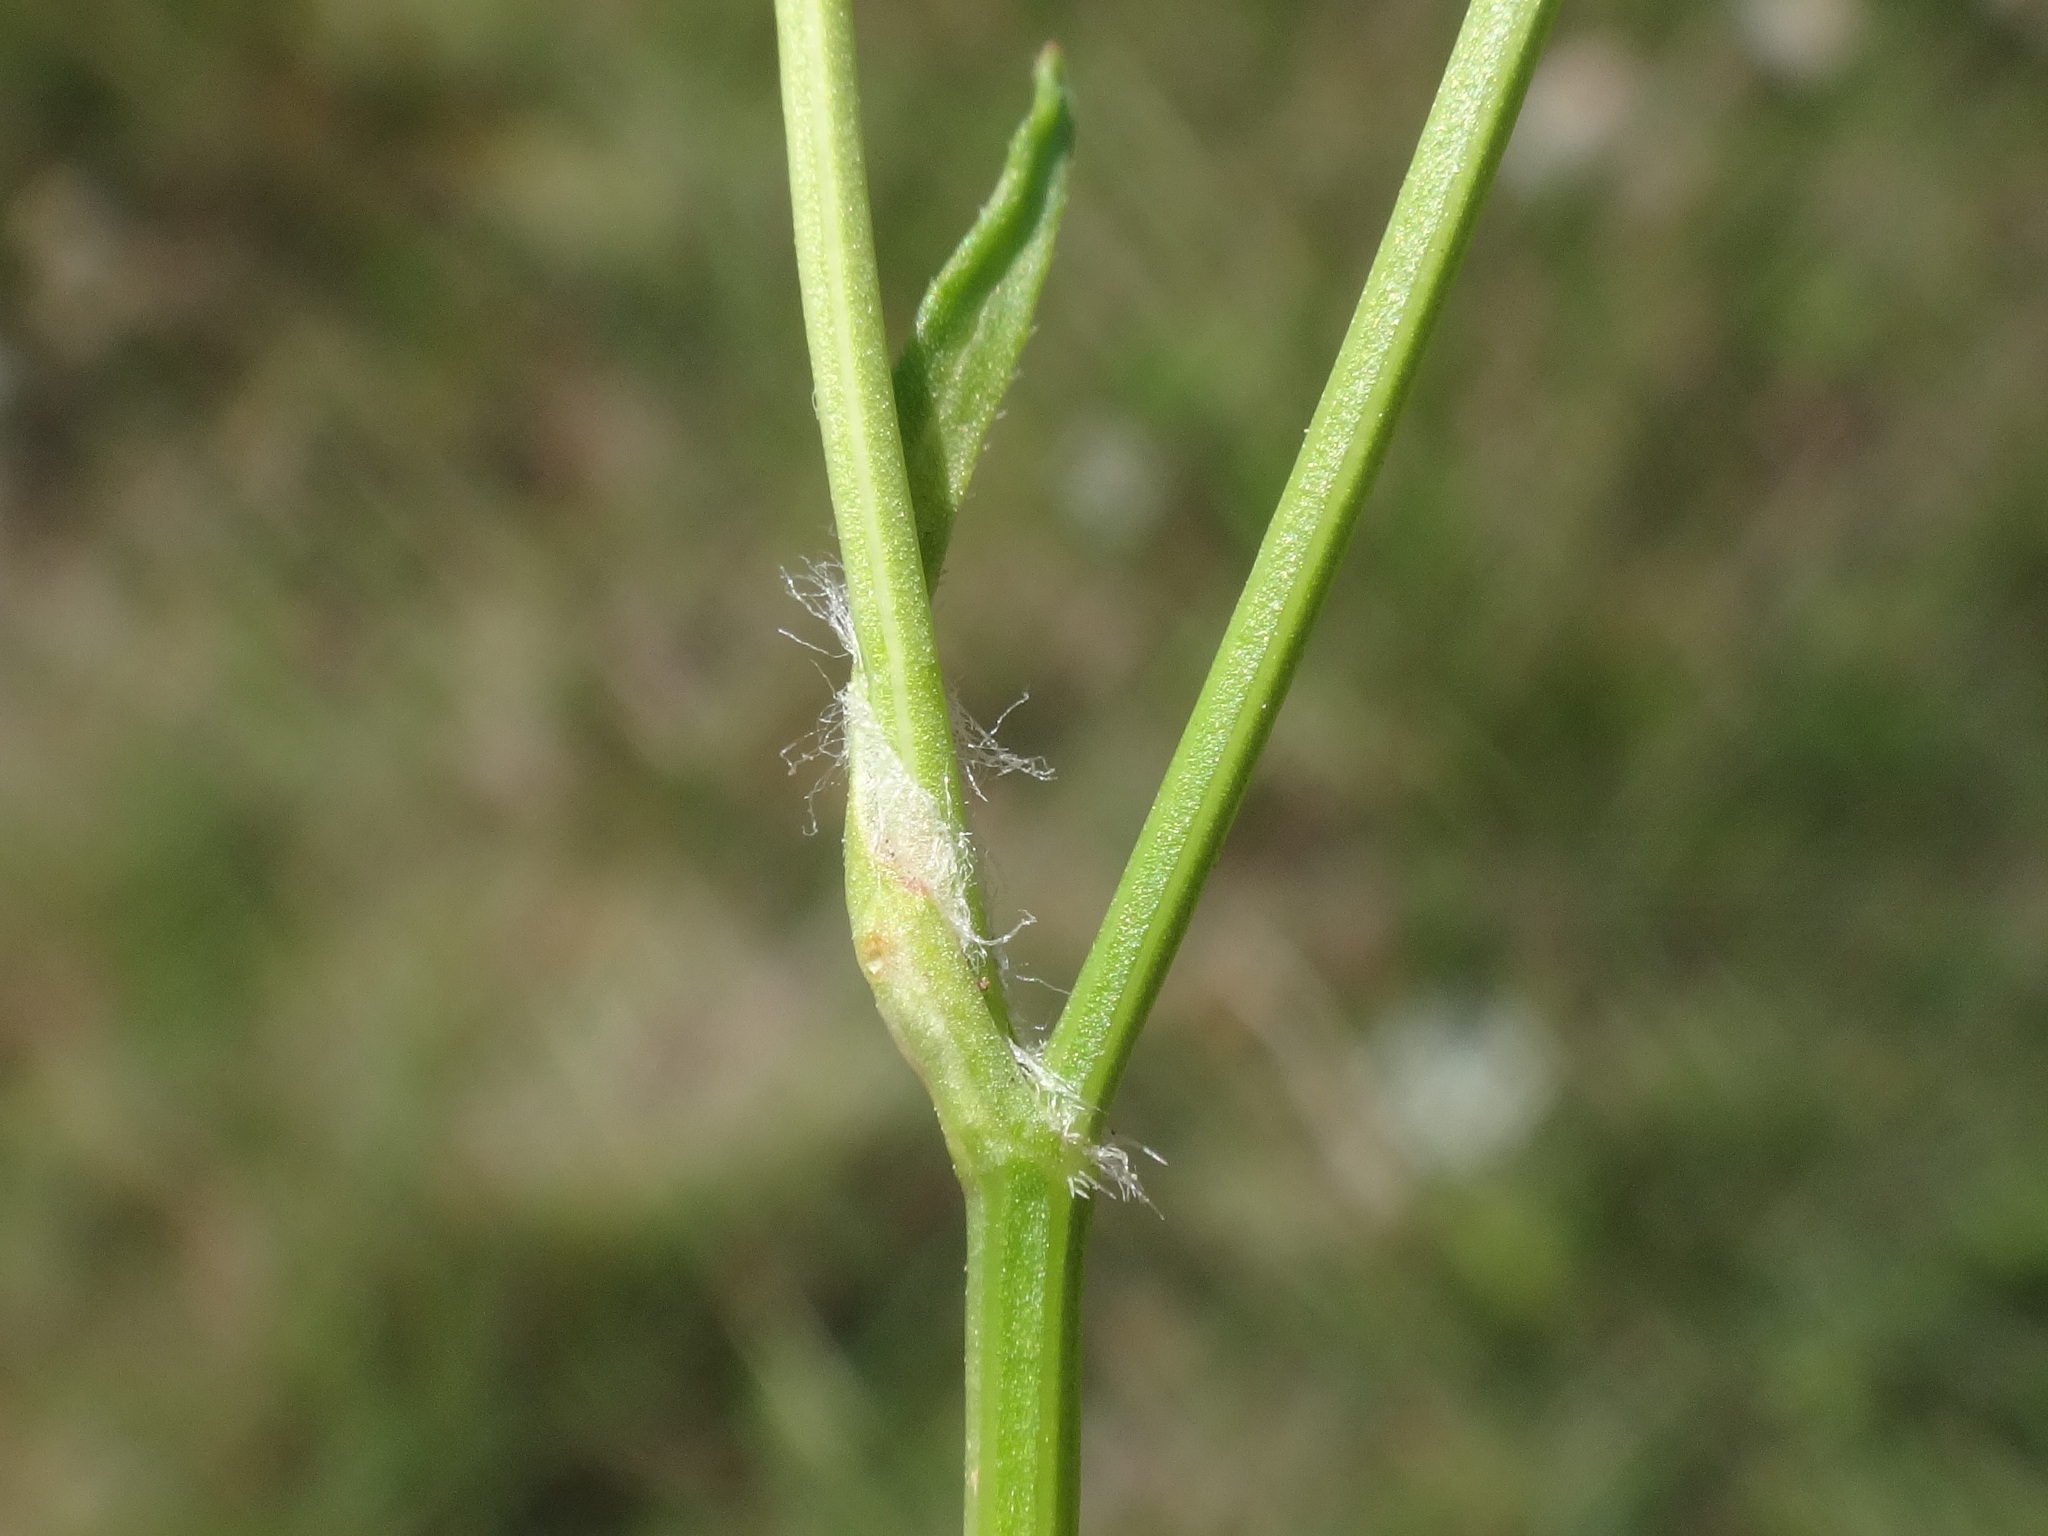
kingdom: Plantae
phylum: Tracheophyta
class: Magnoliopsida
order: Apiales
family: Apiaceae
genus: Tordylium
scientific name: Tordylium apulum
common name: Mediterranean hartwort
